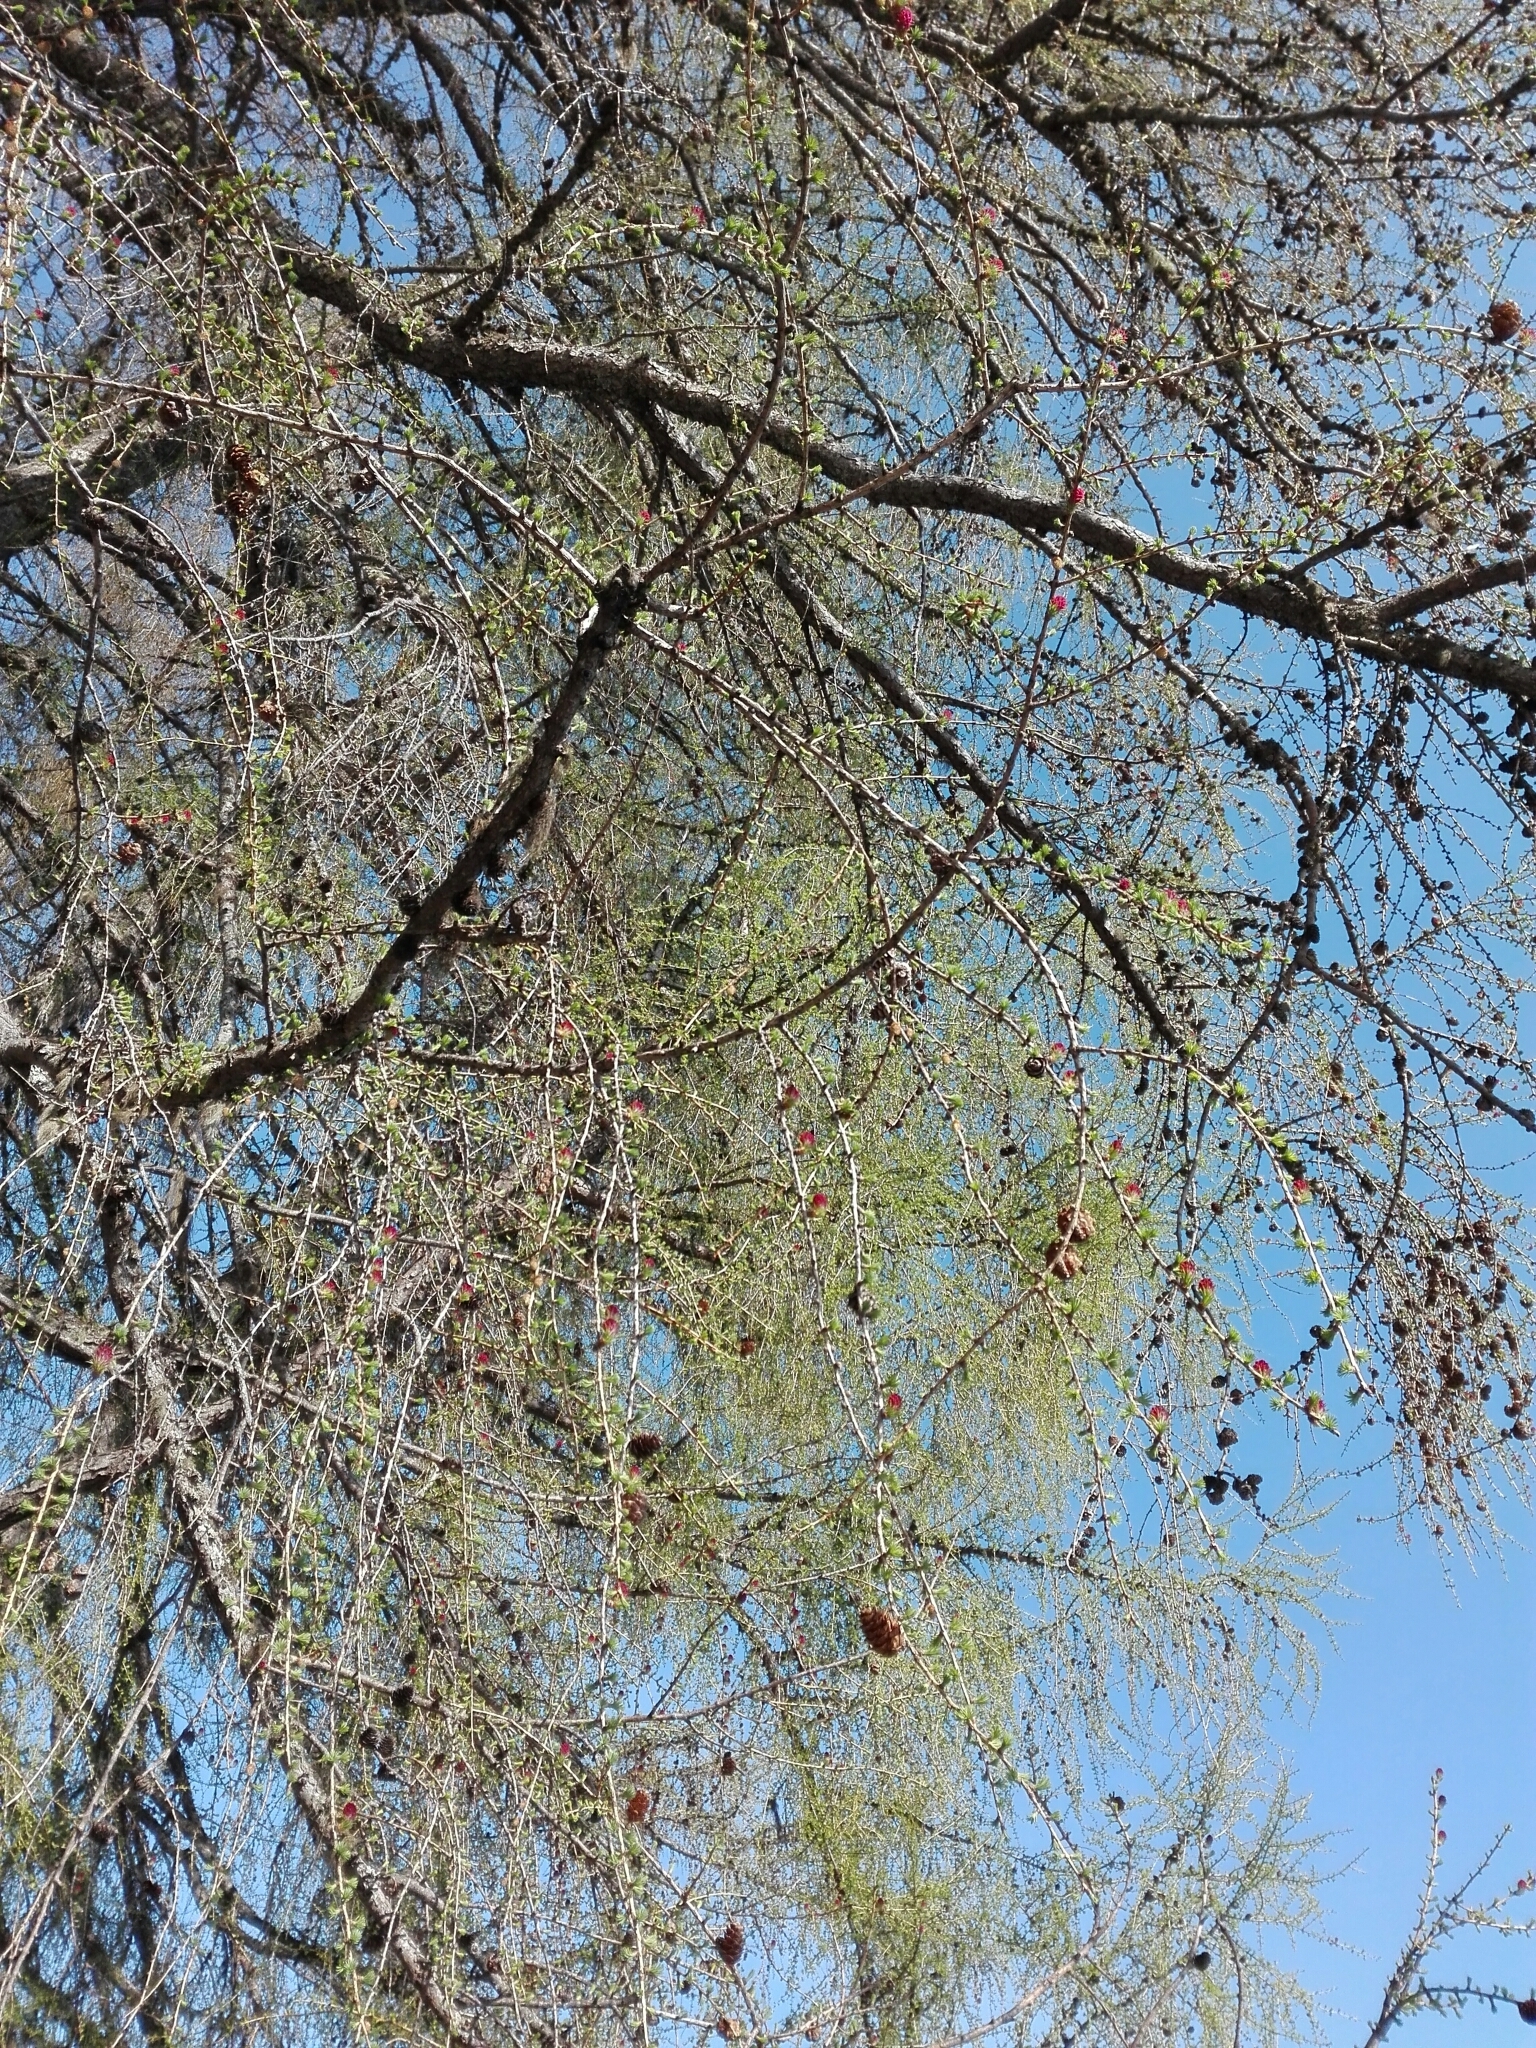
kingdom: Plantae
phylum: Tracheophyta
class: Pinopsida
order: Pinales
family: Pinaceae
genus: Larix
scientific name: Larix decidua
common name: European larch
